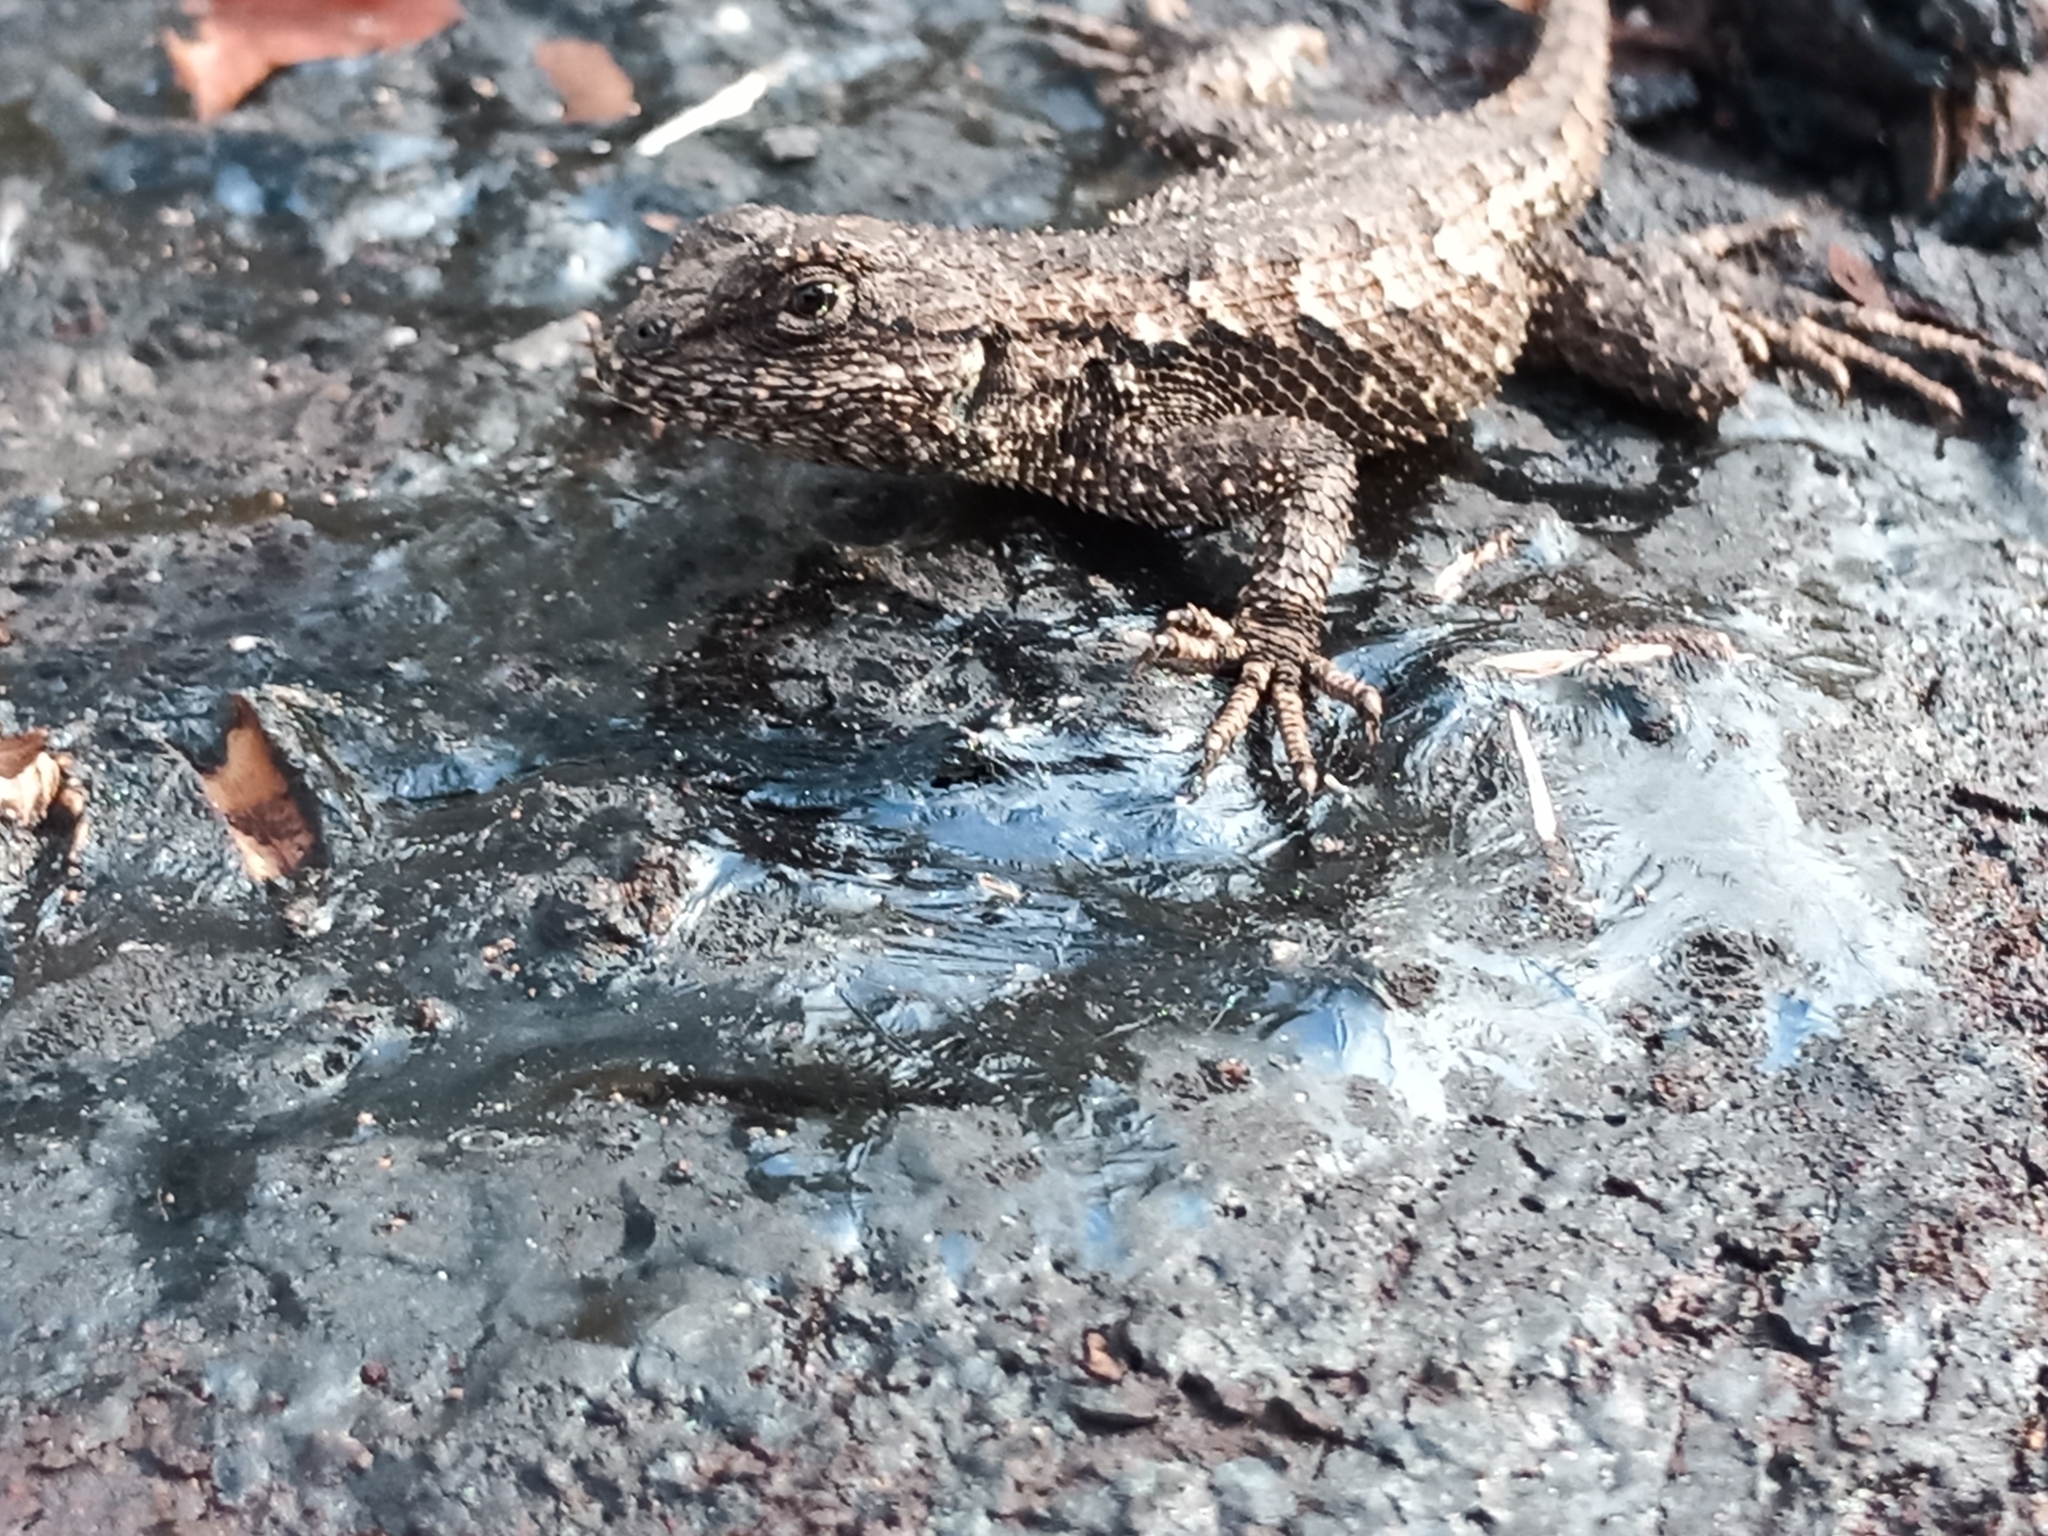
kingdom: Animalia
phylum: Chordata
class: Squamata
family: Phrynosomatidae
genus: Sceloporus
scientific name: Sceloporus consobrinus
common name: Southern prairie lizard
